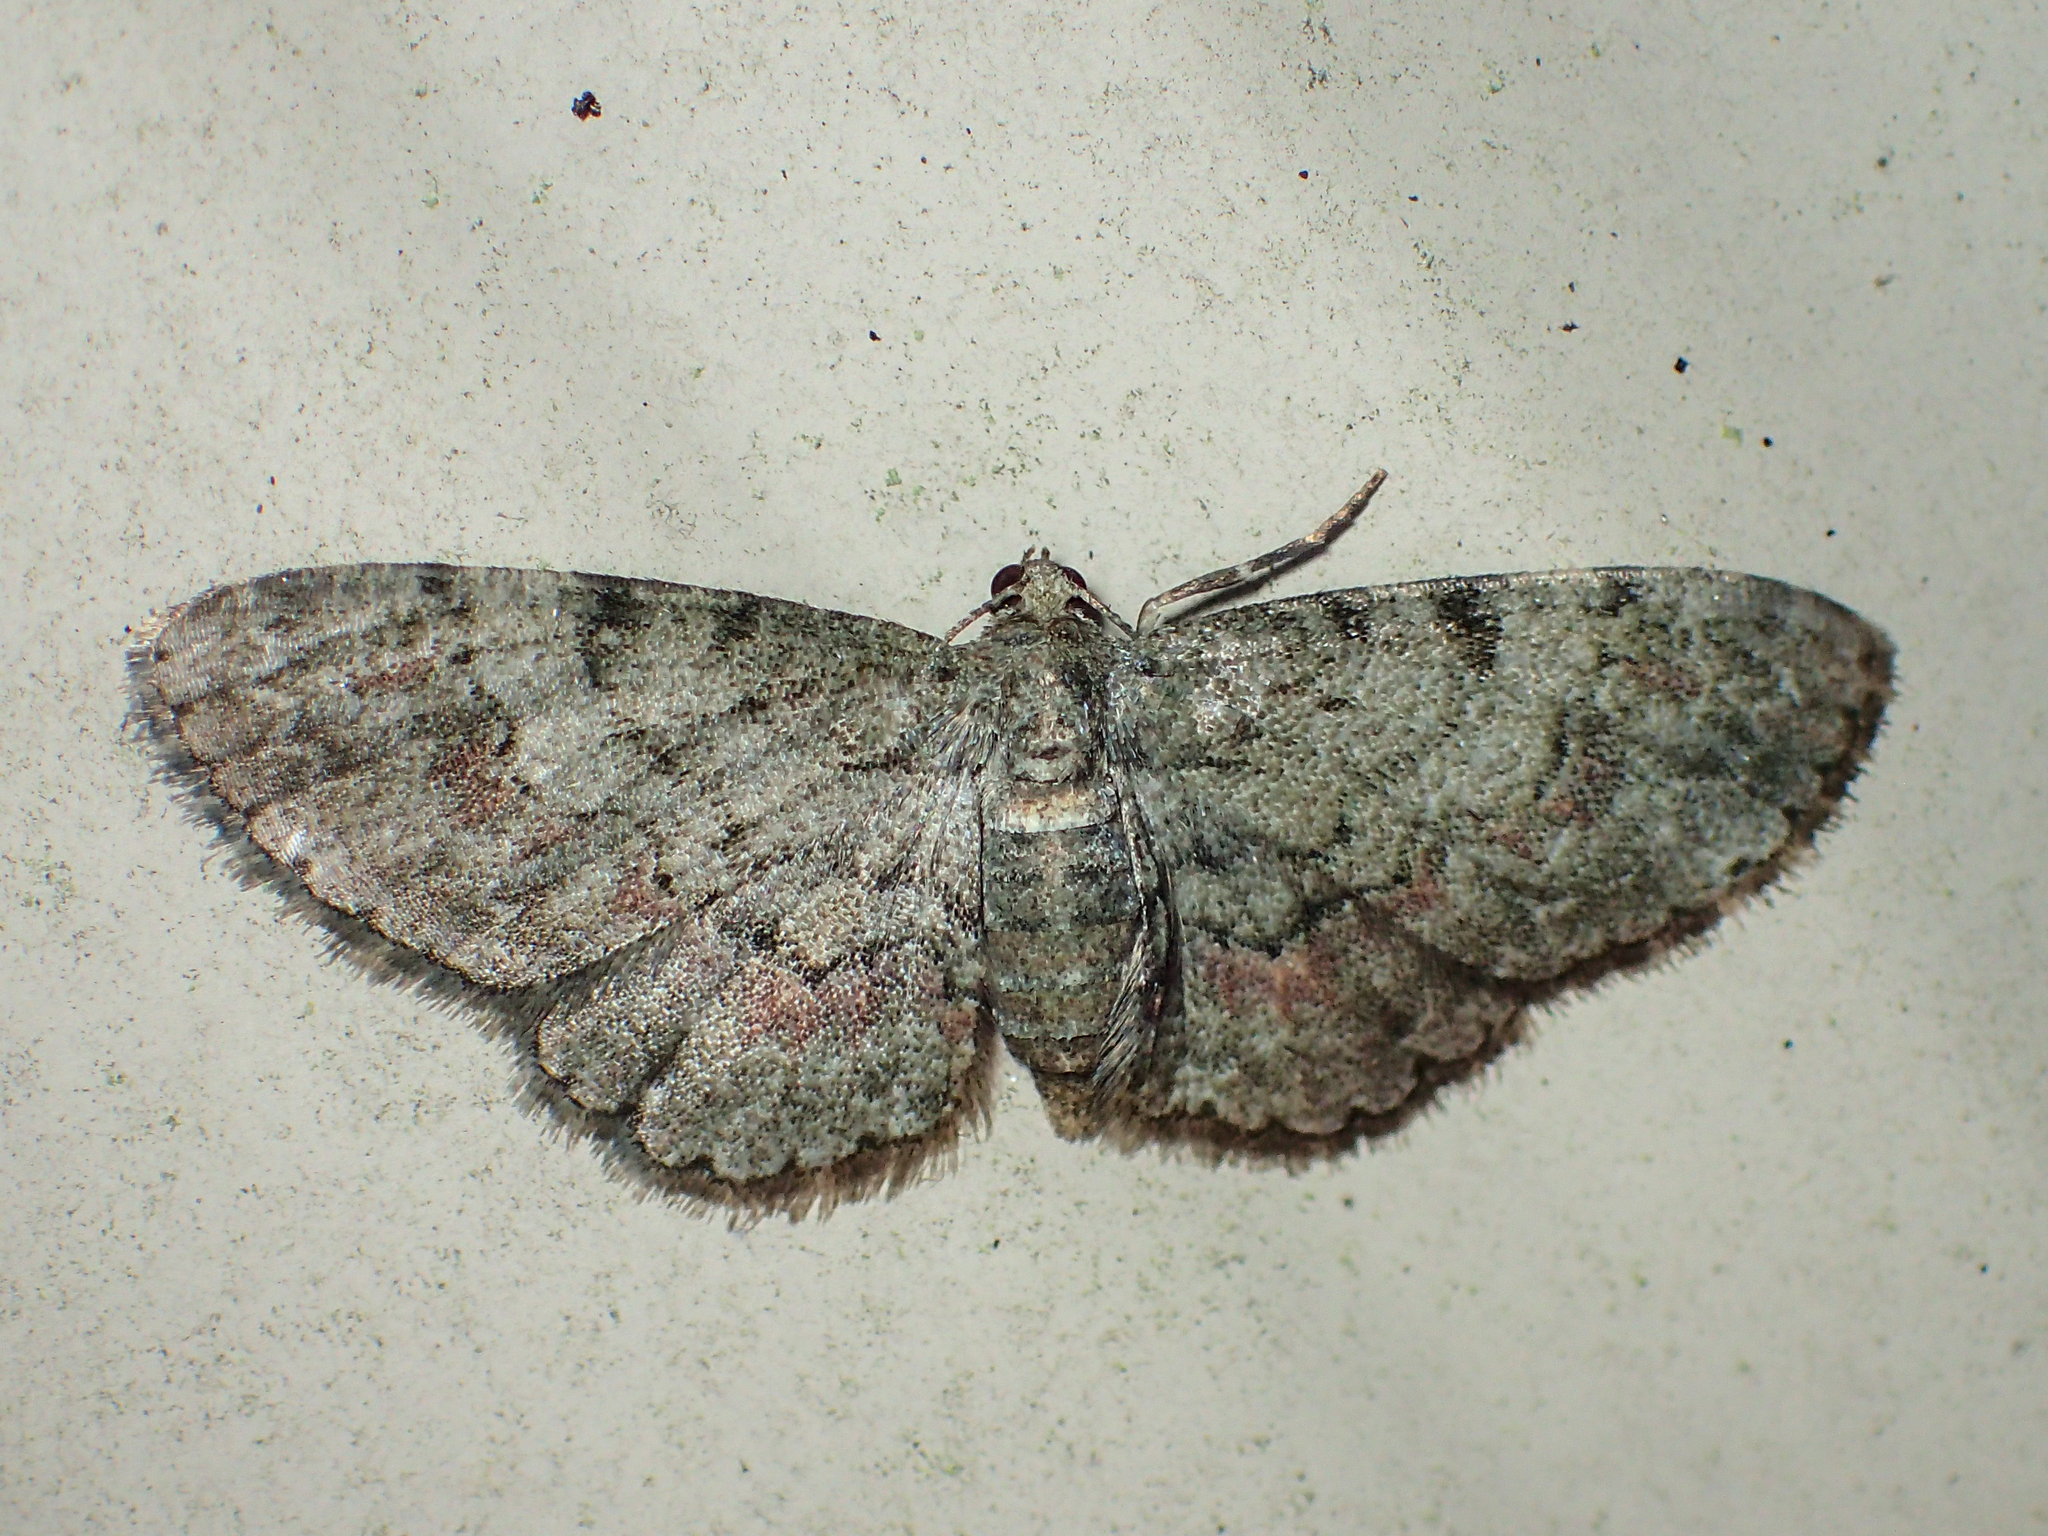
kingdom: Animalia
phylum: Arthropoda
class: Insecta
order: Lepidoptera
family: Geometridae
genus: Glenoides
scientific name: Glenoides texanaria
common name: Texas gray
